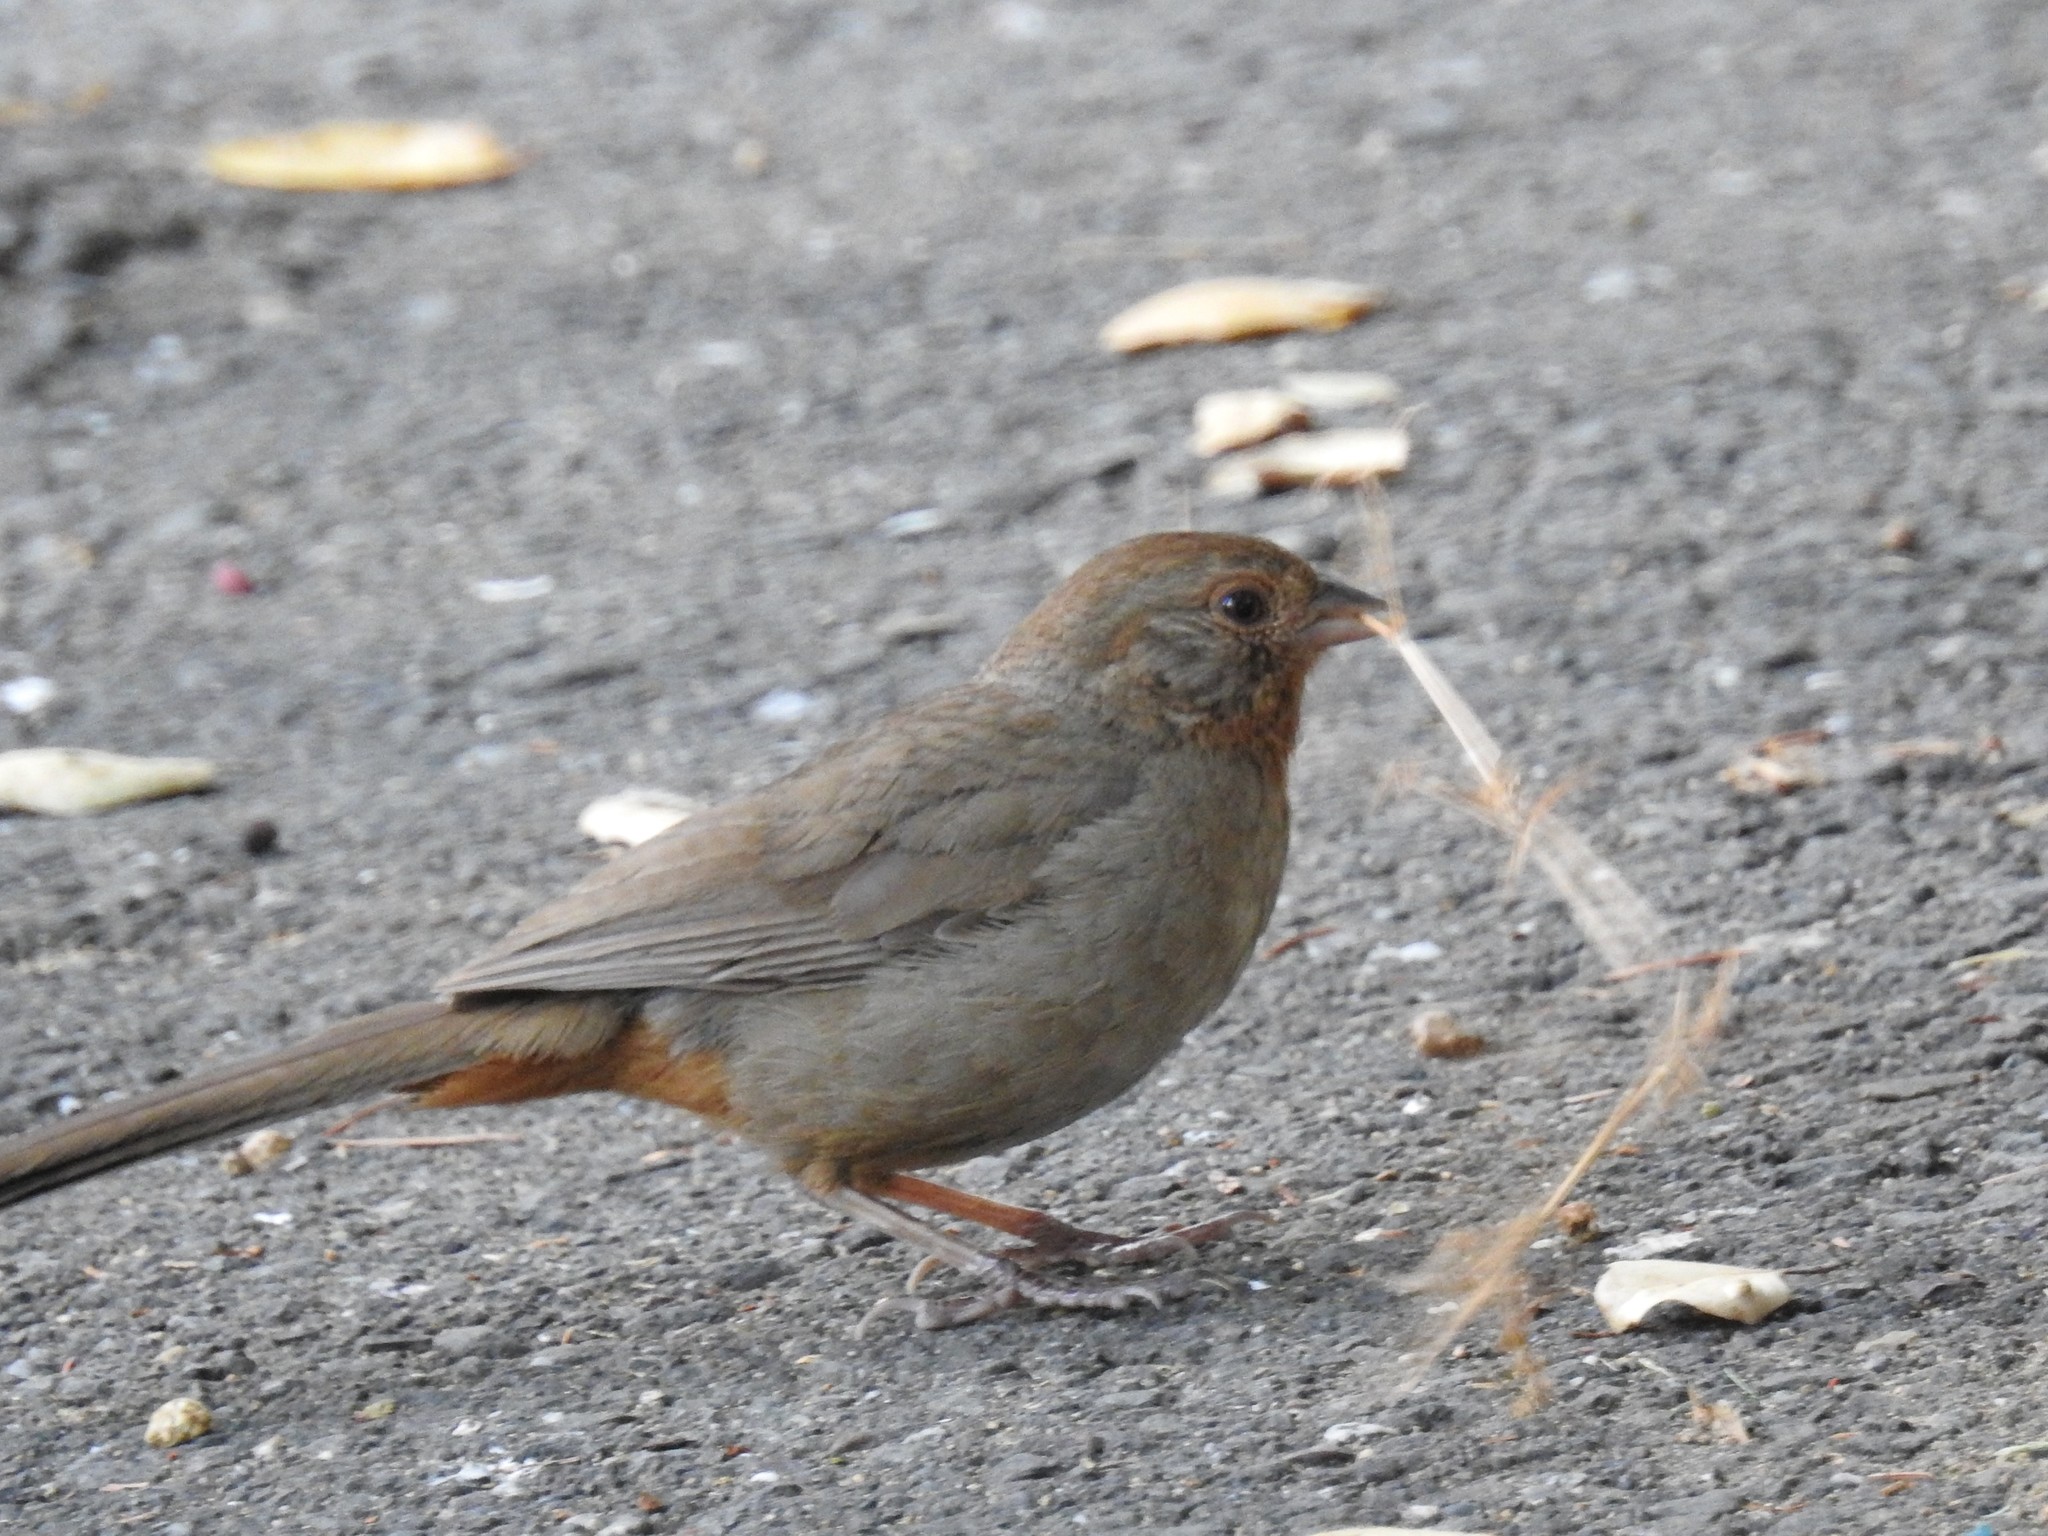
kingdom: Animalia
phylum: Chordata
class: Aves
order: Passeriformes
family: Passerellidae
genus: Melozone
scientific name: Melozone crissalis
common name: California towhee
